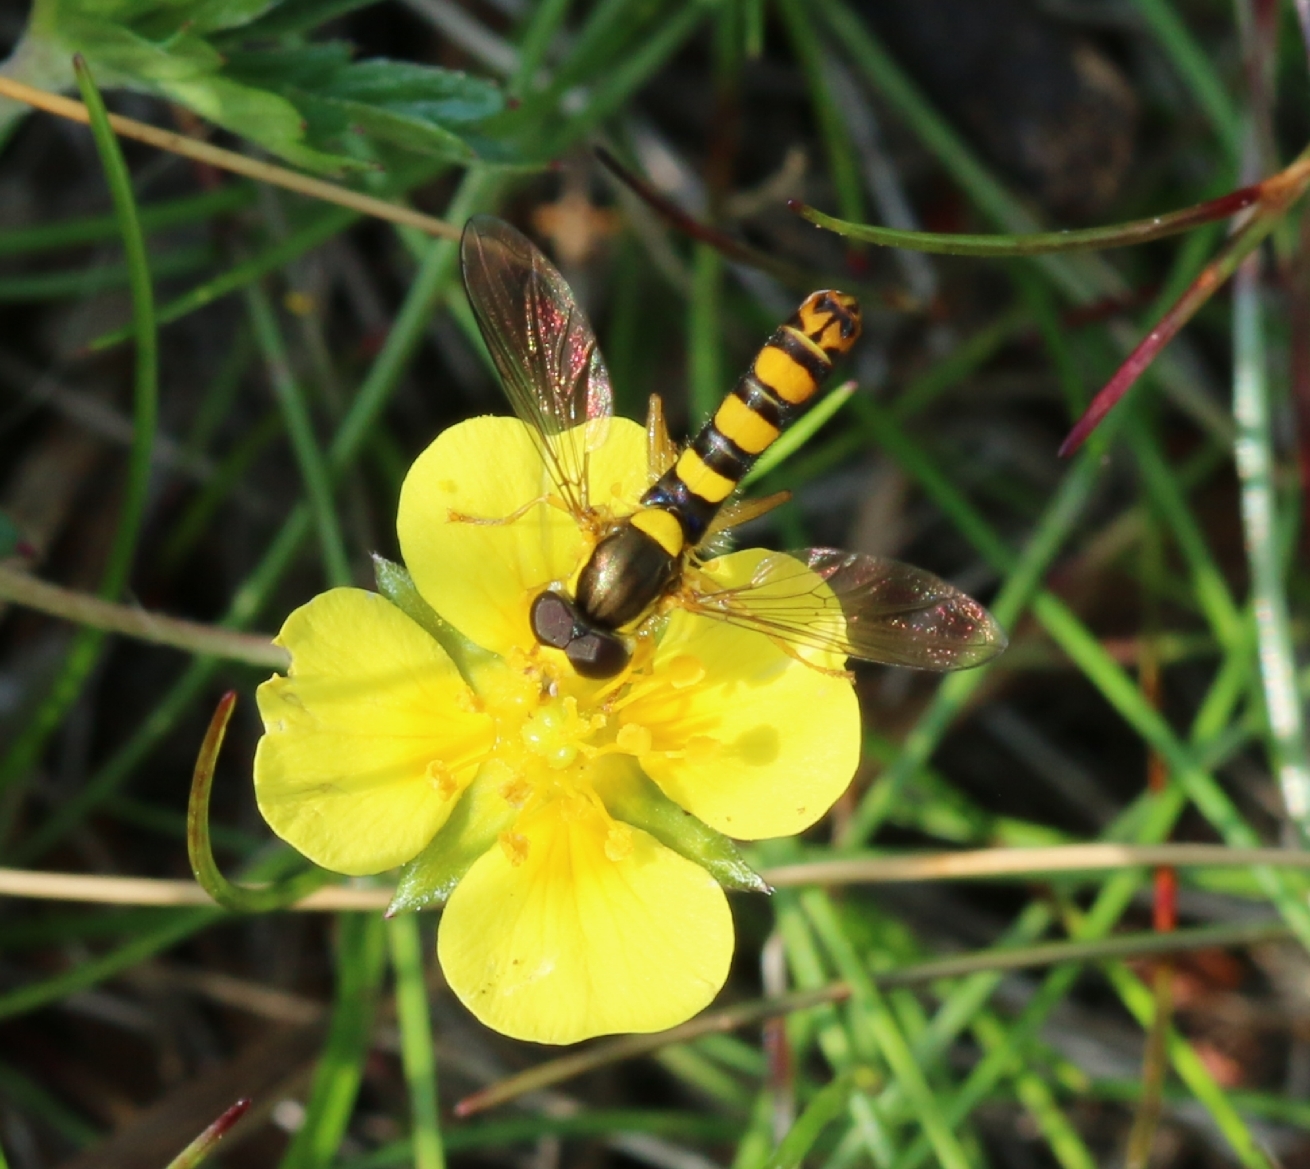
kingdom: Animalia
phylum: Arthropoda
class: Insecta
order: Diptera
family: Syrphidae
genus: Sphaerophoria
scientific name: Sphaerophoria
